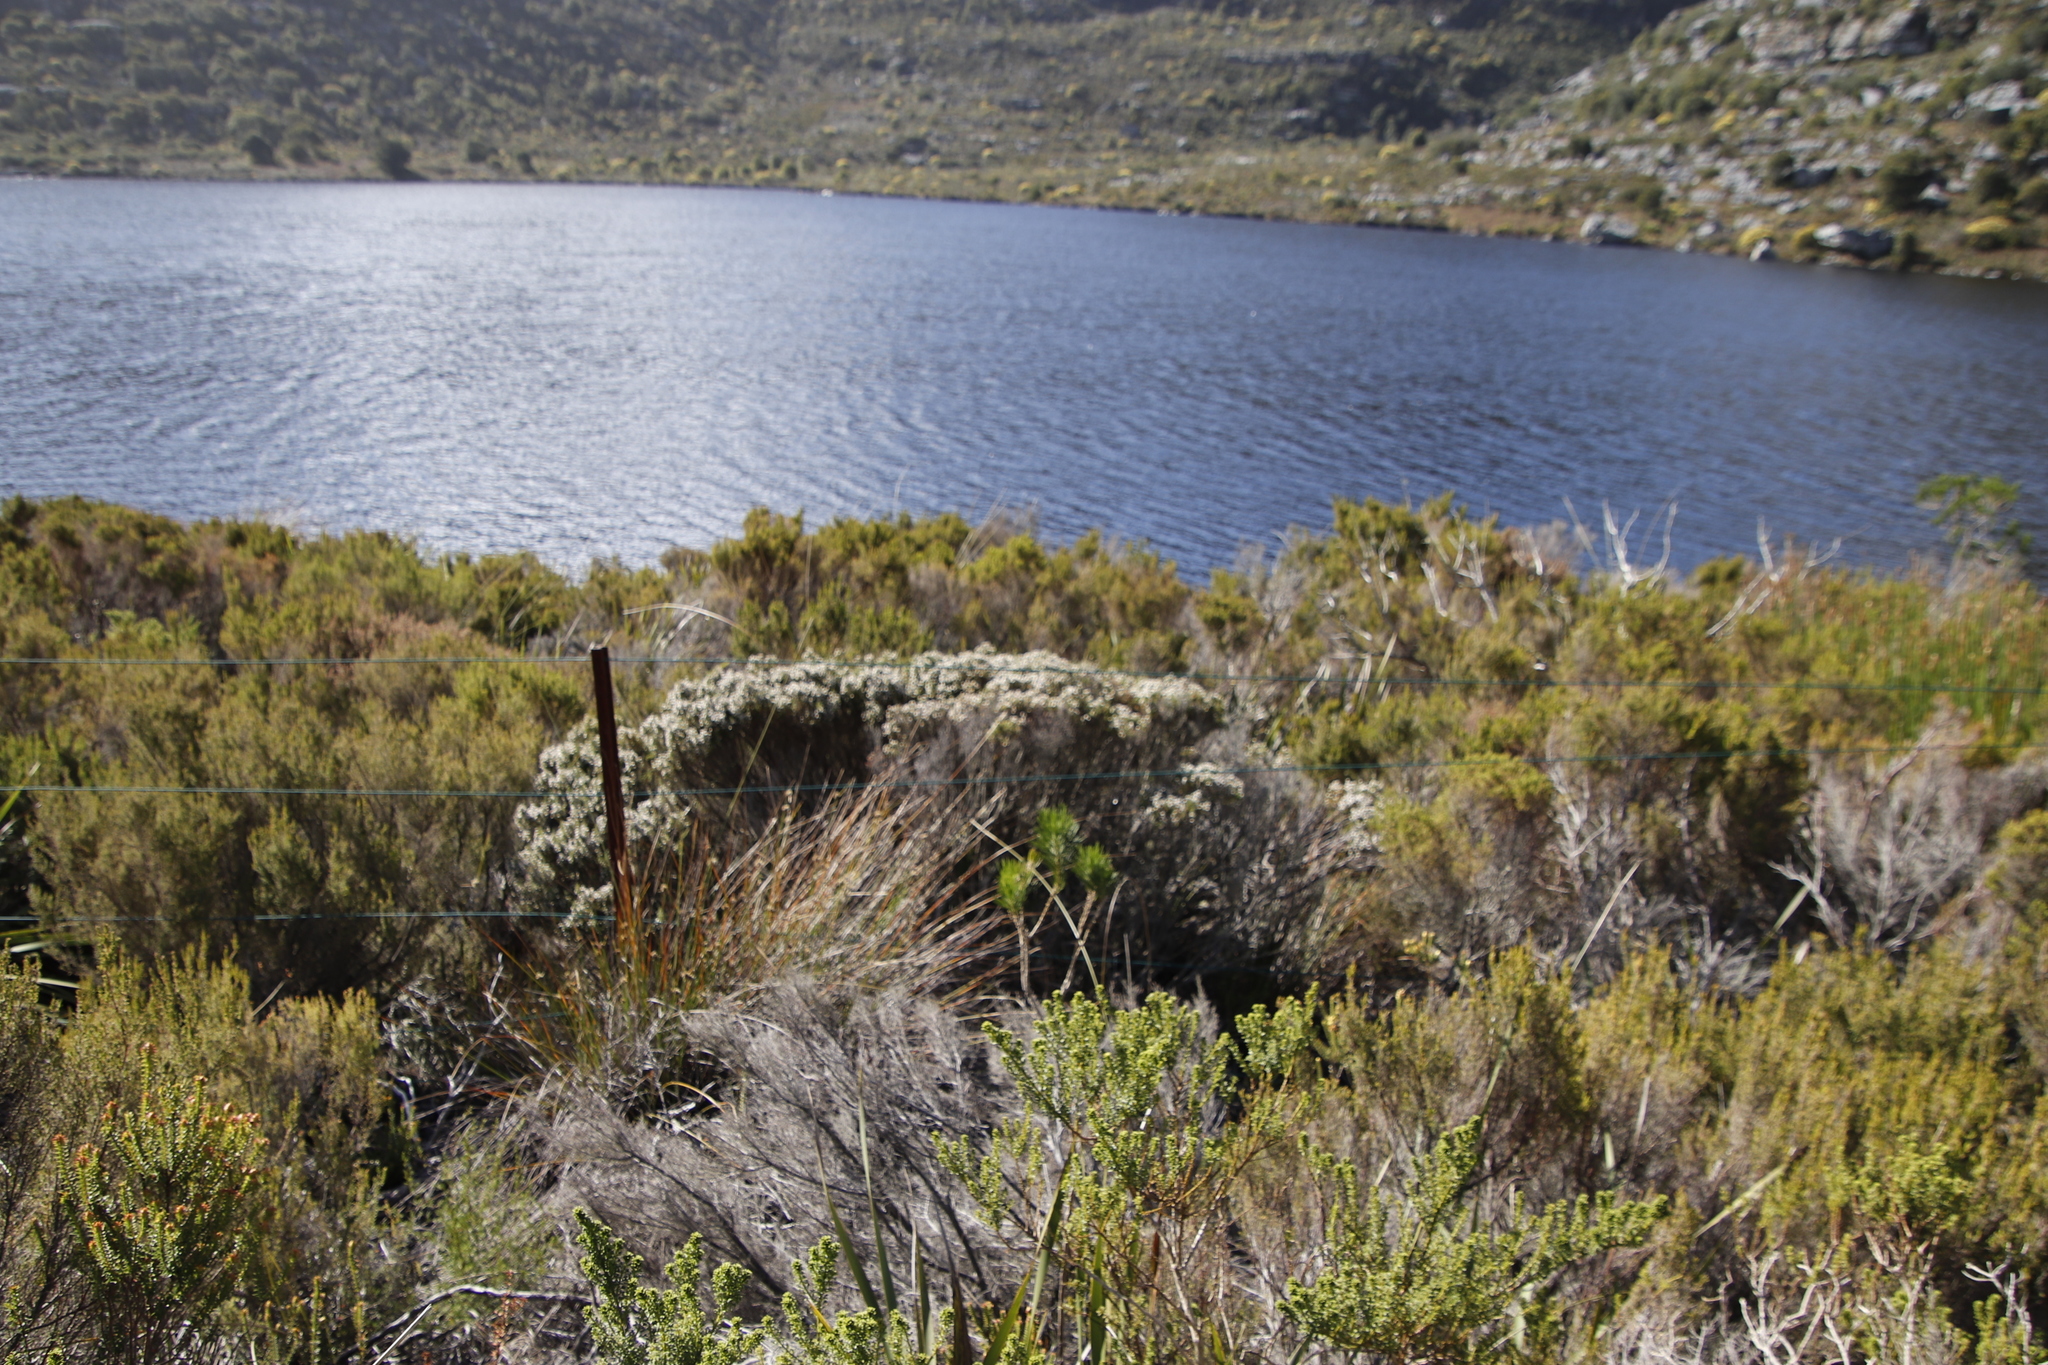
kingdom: Plantae
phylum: Tracheophyta
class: Magnoliopsida
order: Ericales
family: Ericaceae
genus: Erica
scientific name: Erica diosmifolia
